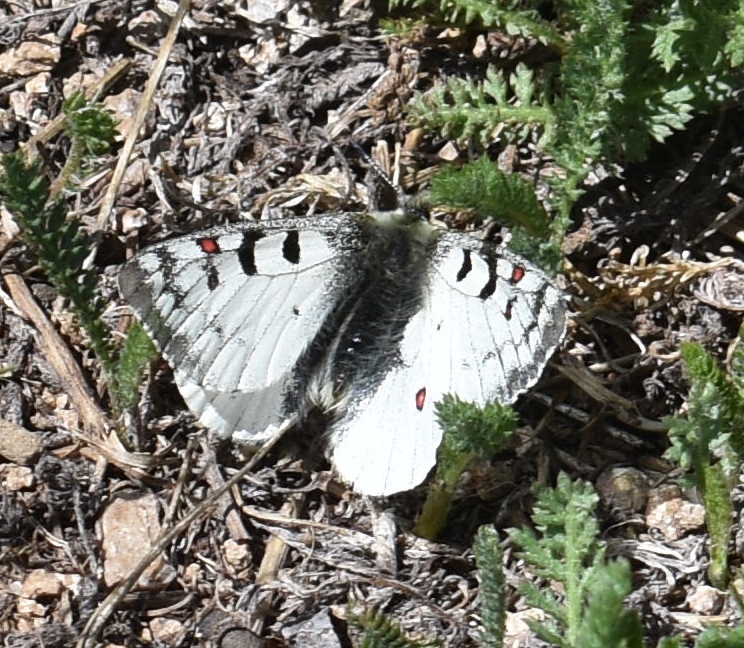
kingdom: Animalia
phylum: Arthropoda
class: Insecta
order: Lepidoptera
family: Papilionidae
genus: Parnassius
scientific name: Parnassius smintheus
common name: Mountain parnassian
